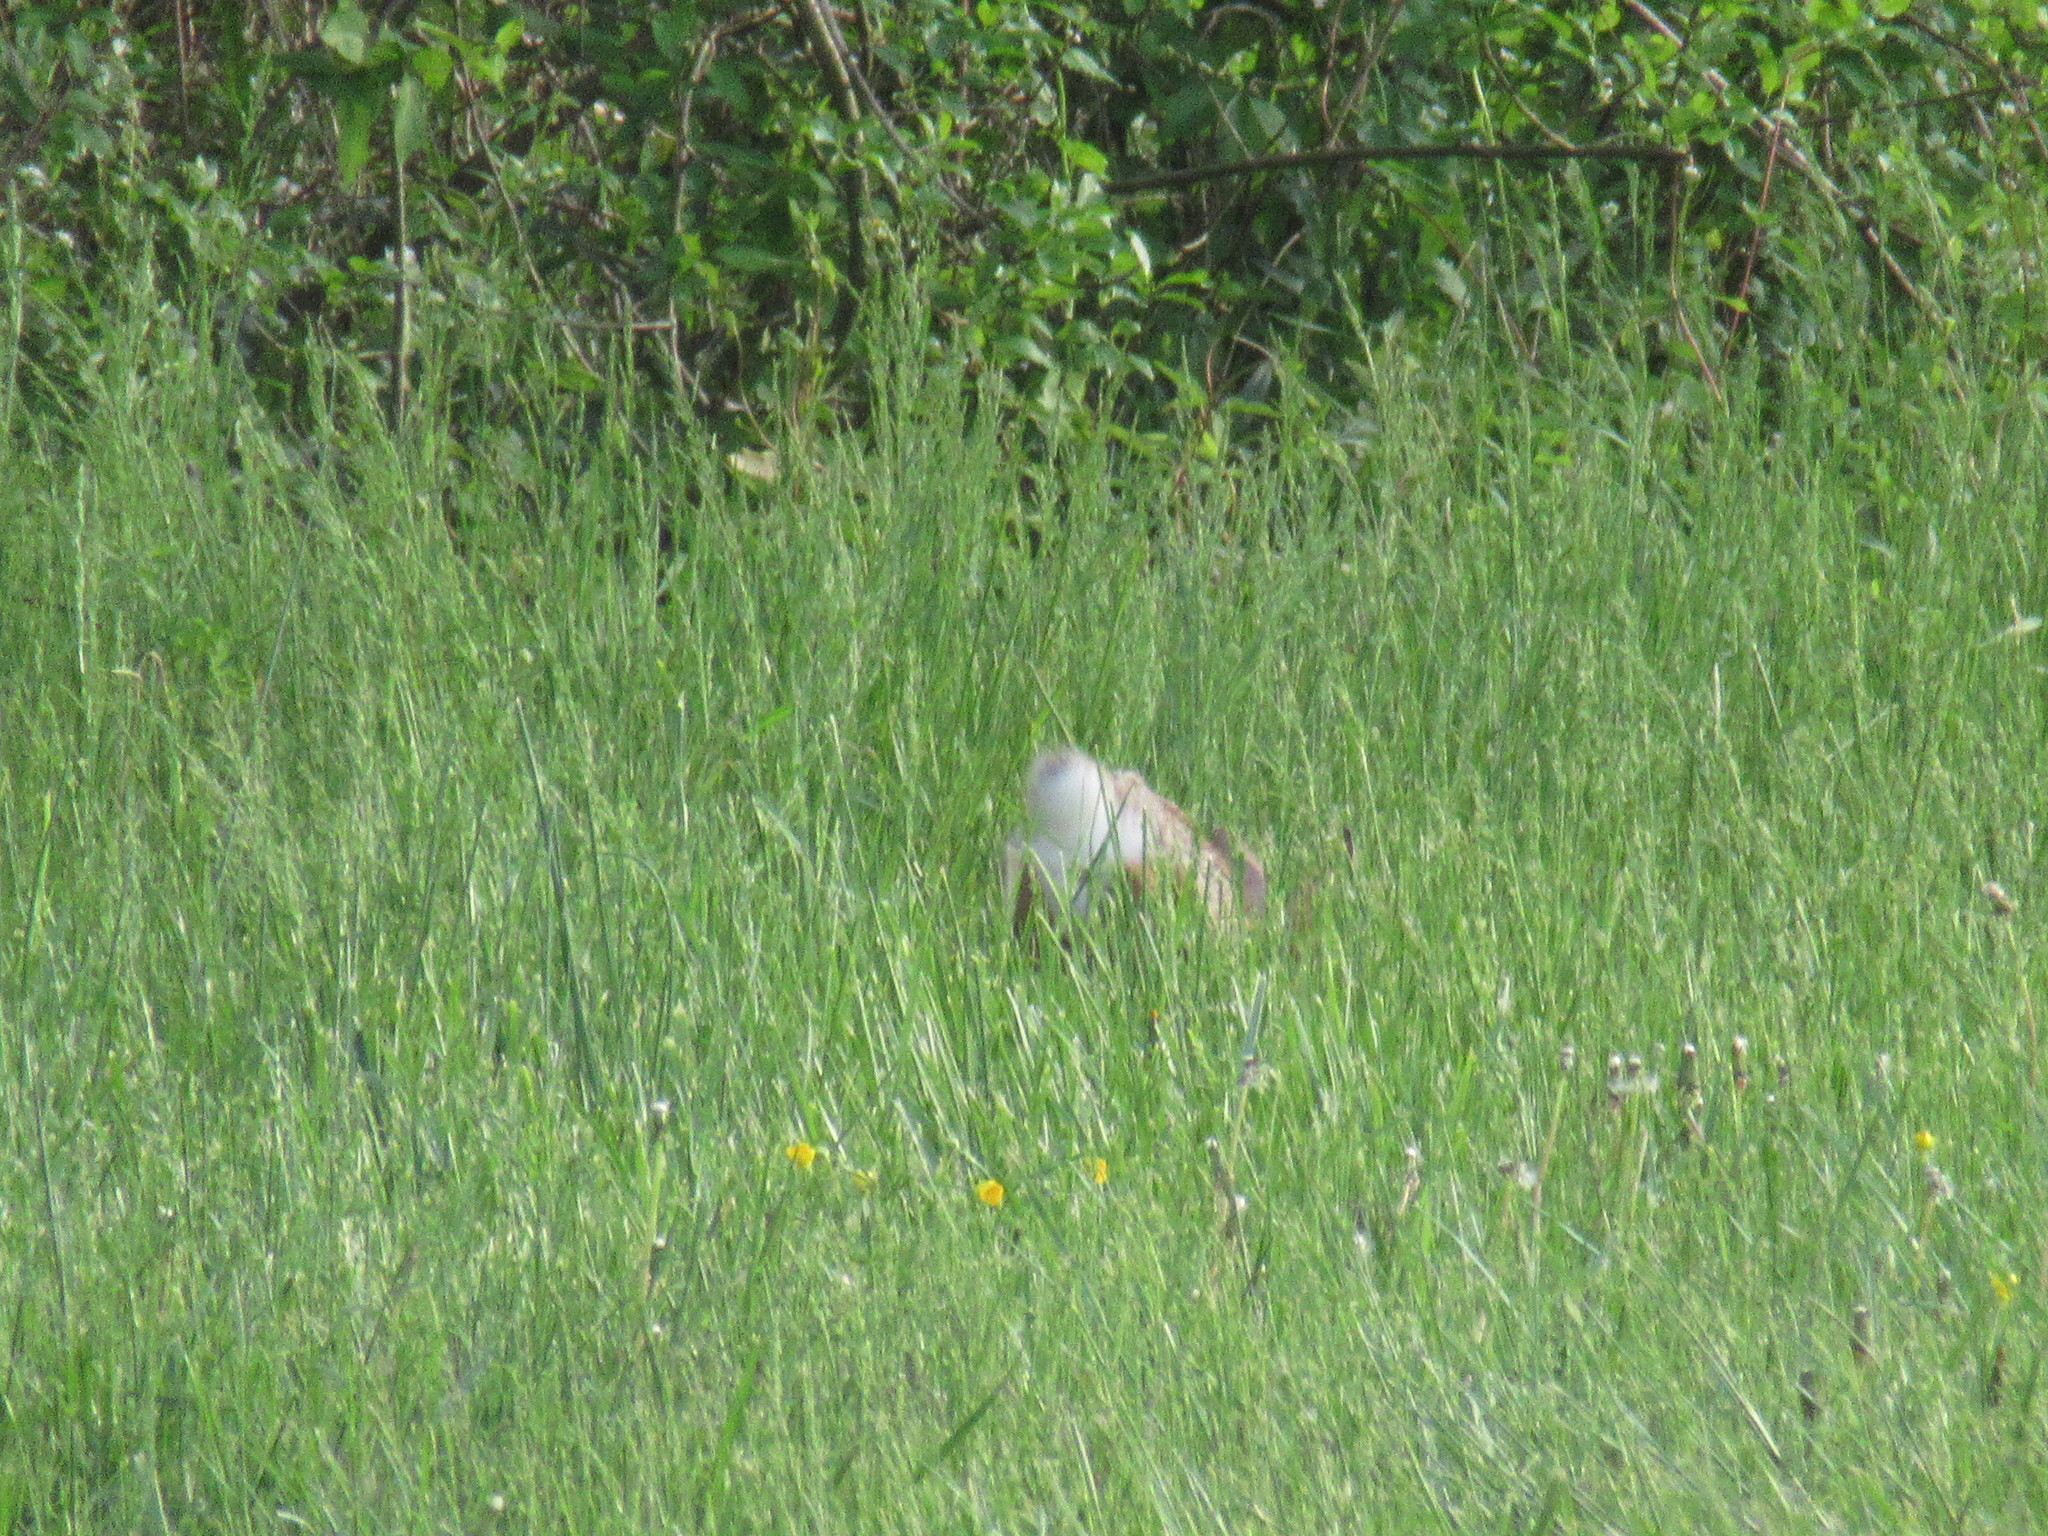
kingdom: Animalia
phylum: Chordata
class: Mammalia
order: Lagomorpha
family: Leporidae
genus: Sylvilagus
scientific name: Sylvilagus floridanus
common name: Eastern cottontail
